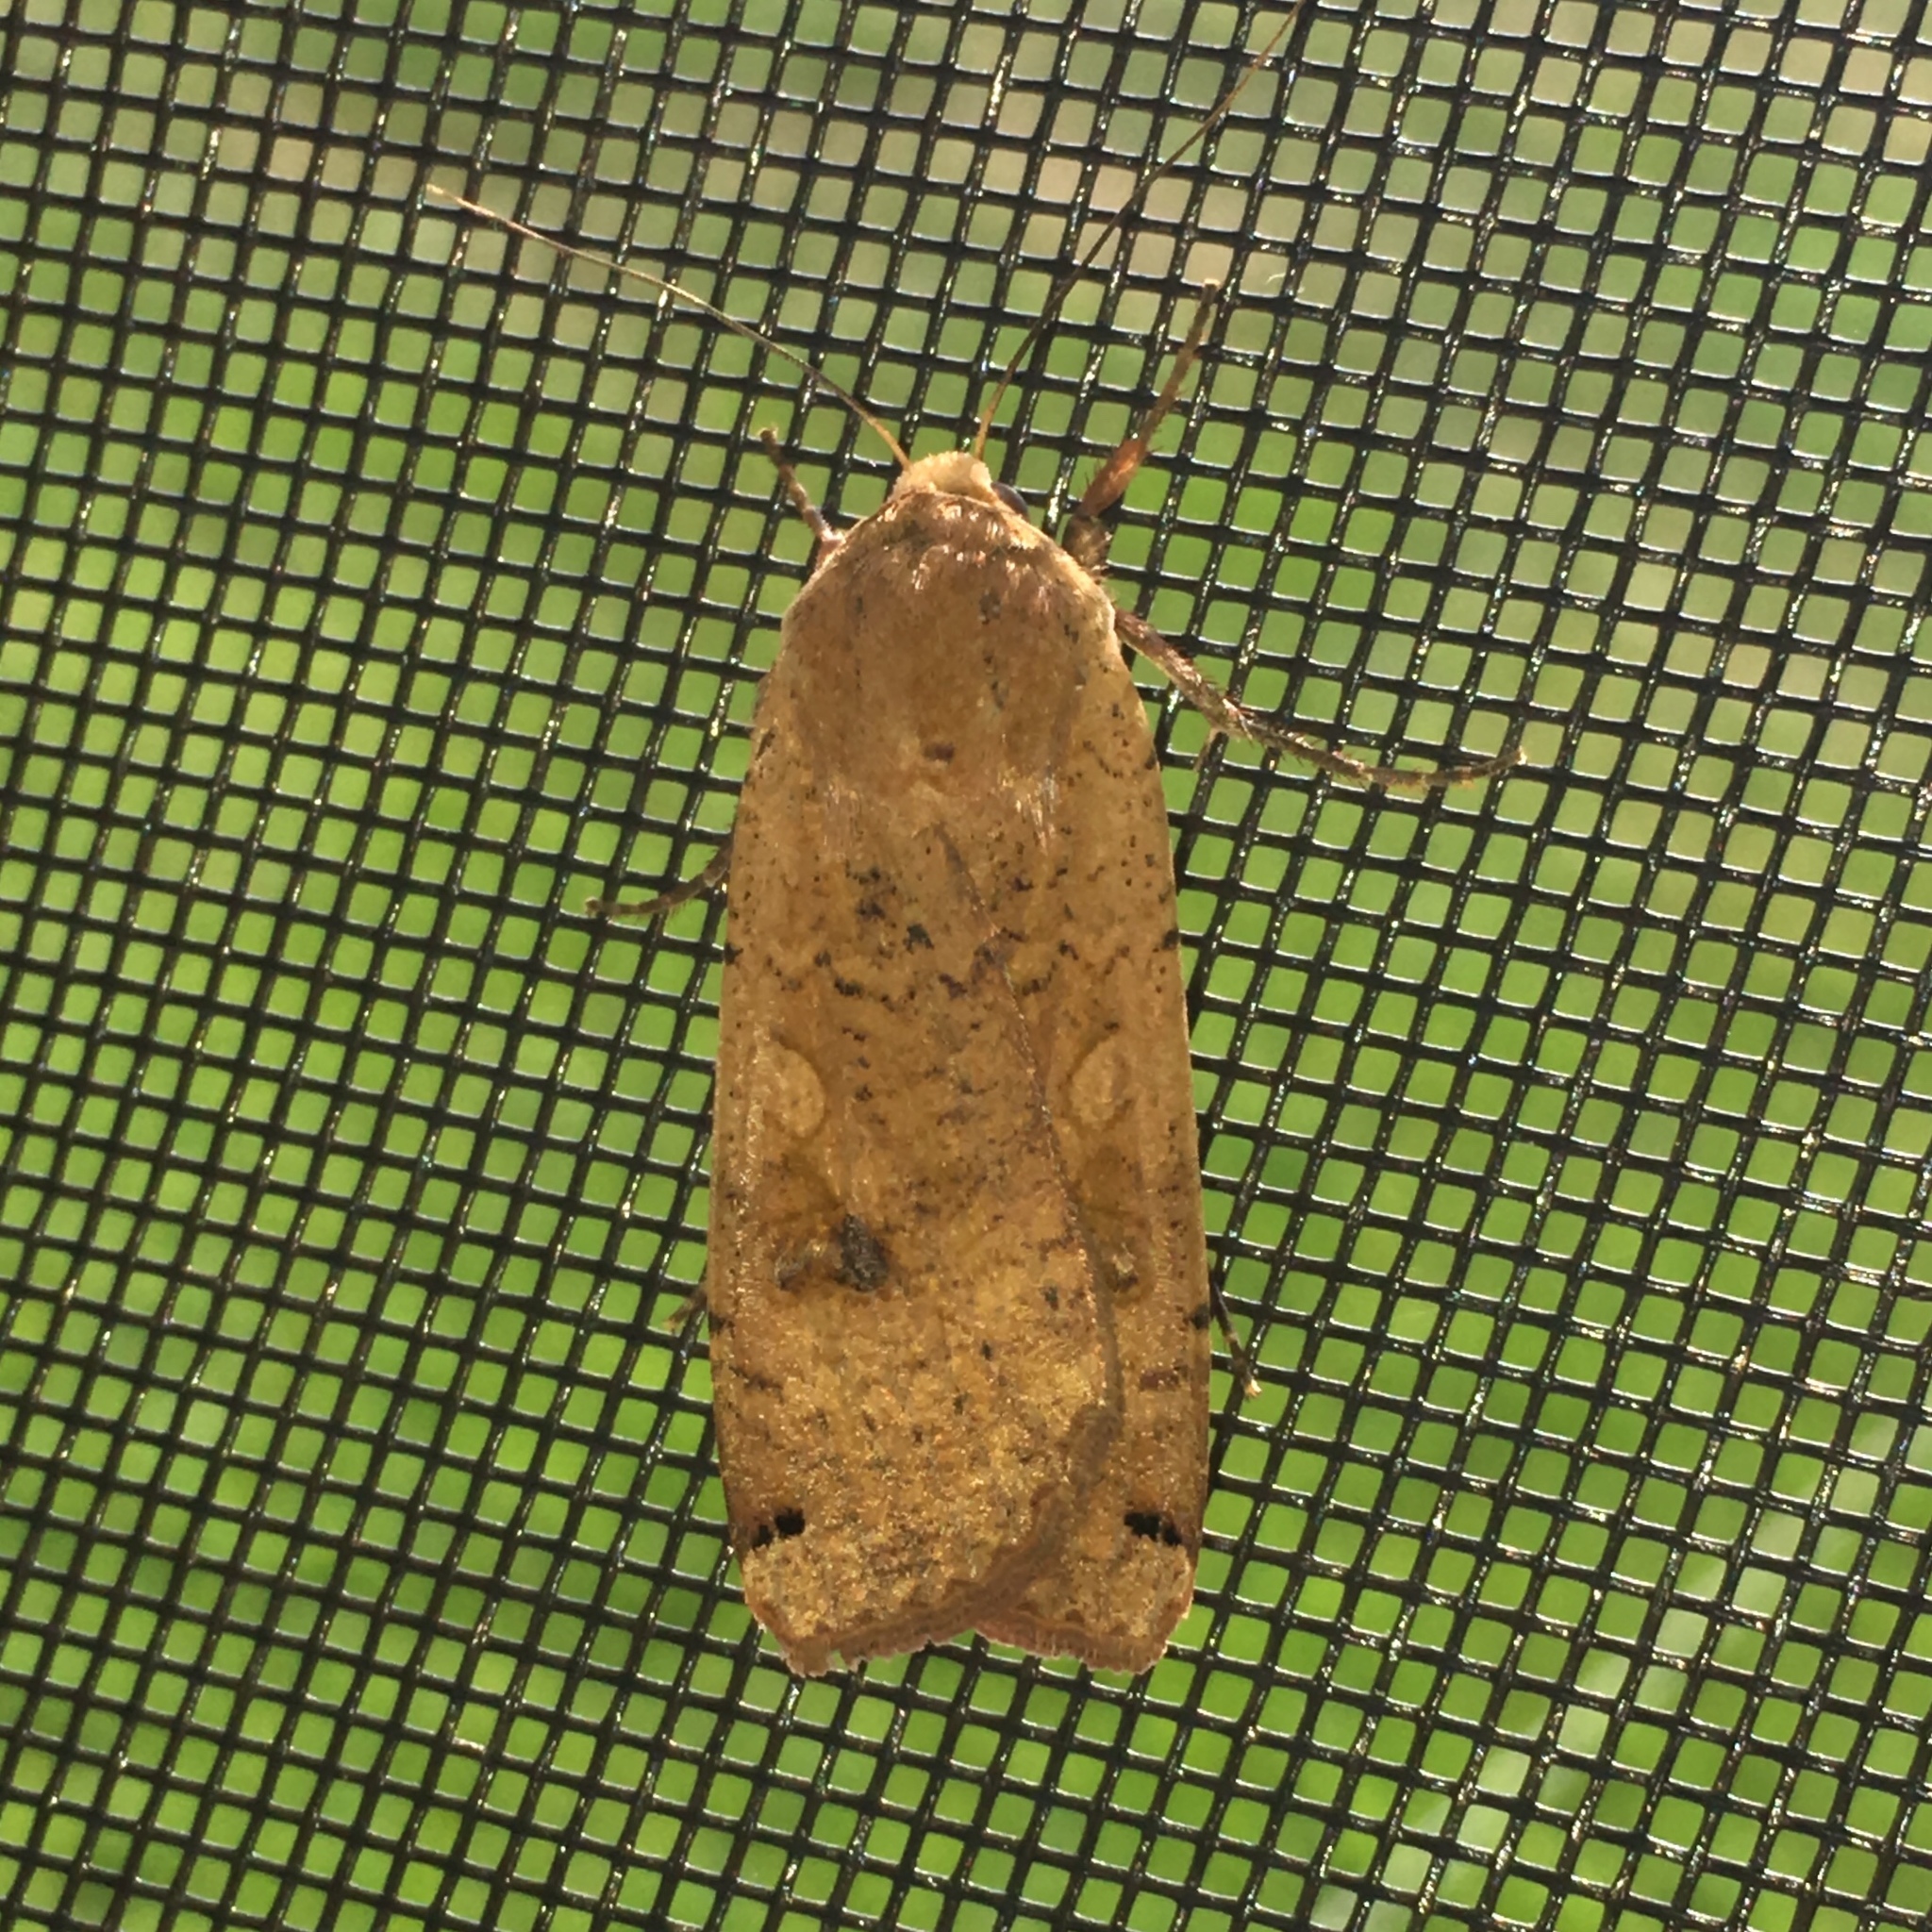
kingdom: Animalia
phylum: Arthropoda
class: Insecta
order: Lepidoptera
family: Noctuidae
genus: Noctua
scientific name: Noctua pronuba
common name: Large yellow underwing
